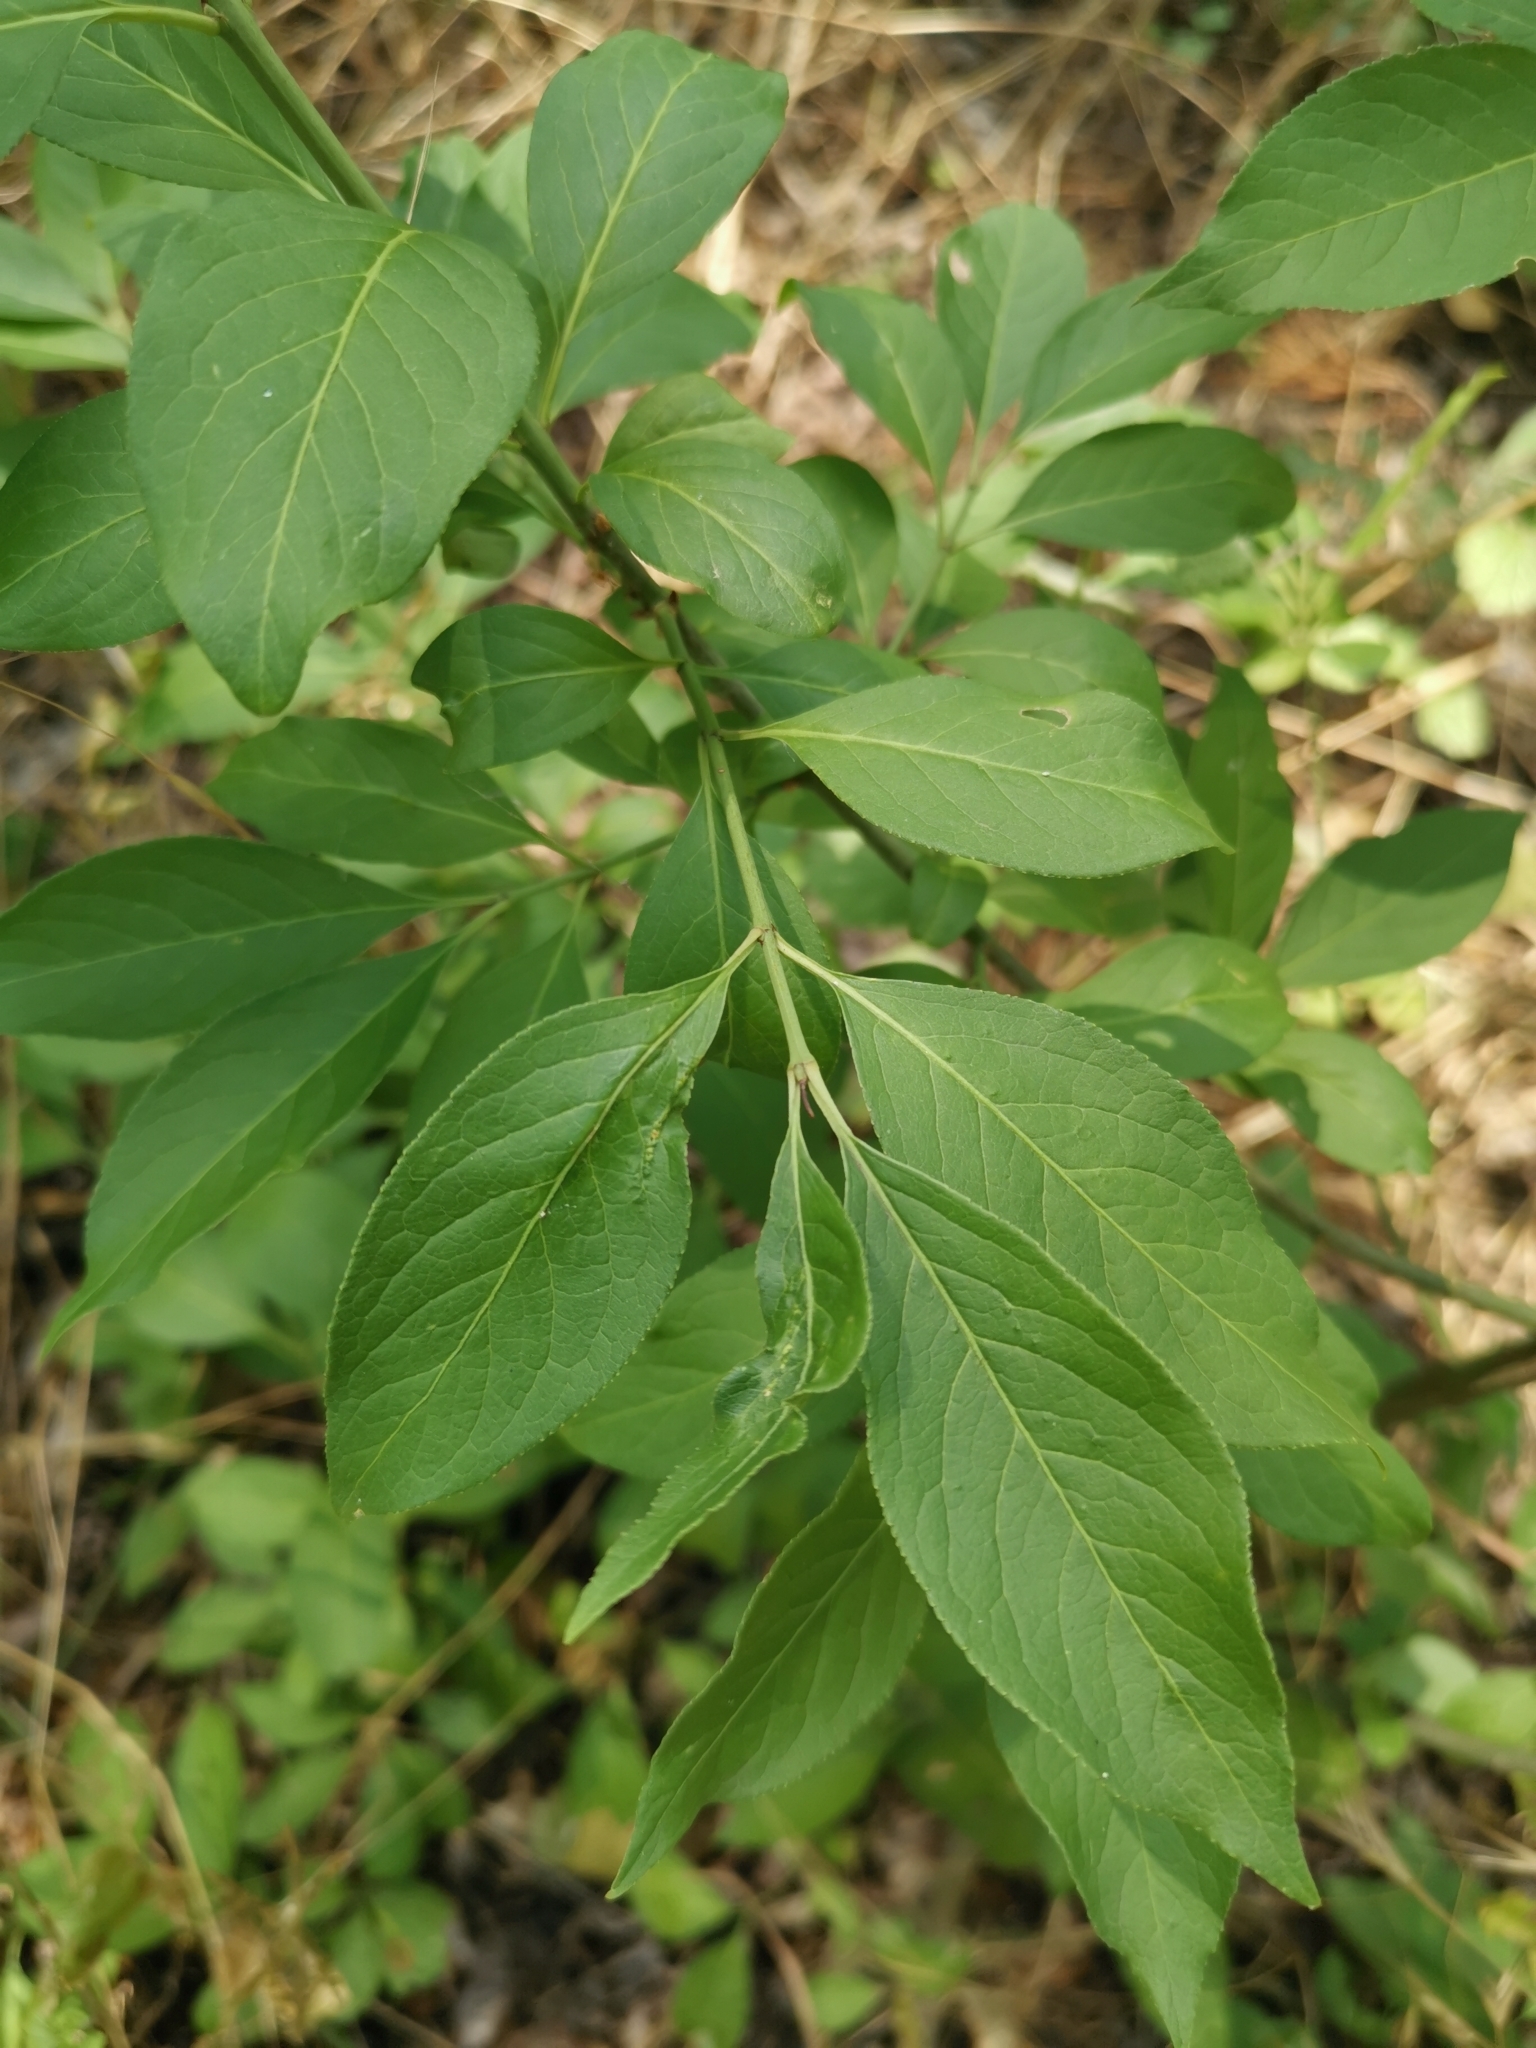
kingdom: Plantae
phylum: Tracheophyta
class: Magnoliopsida
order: Celastrales
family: Celastraceae
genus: Euonymus
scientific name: Euonymus europaeus
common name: Spindle
